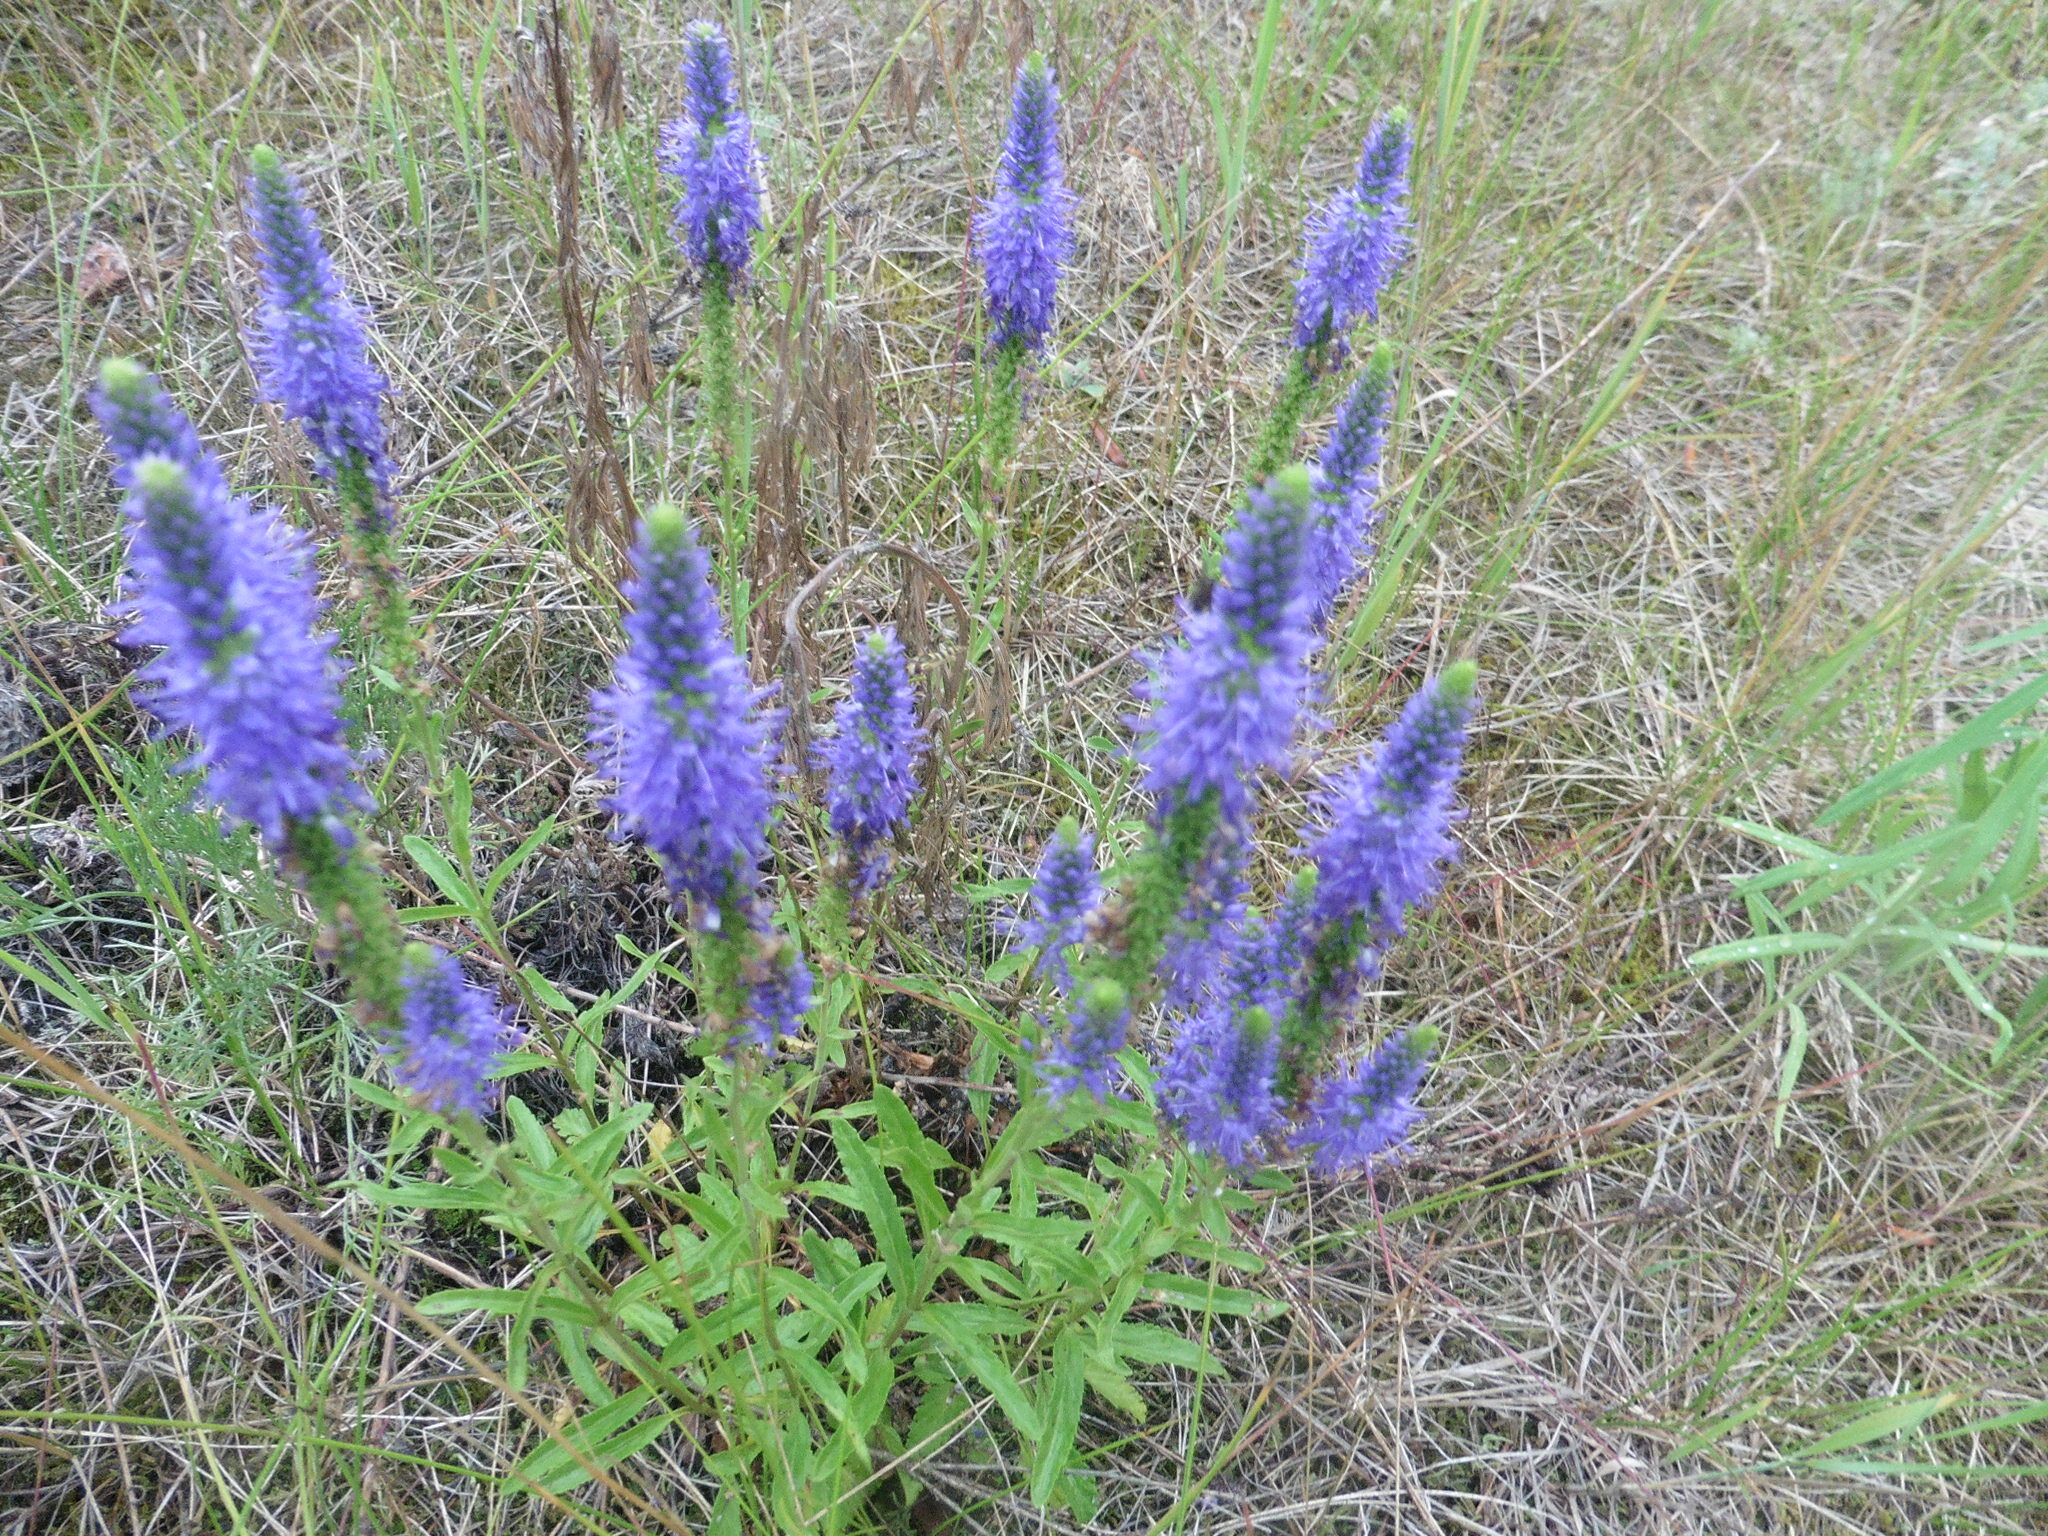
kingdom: Plantae
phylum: Tracheophyta
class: Magnoliopsida
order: Lamiales
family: Plantaginaceae
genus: Veronica
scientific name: Veronica spicata
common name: Spiked speedwell
